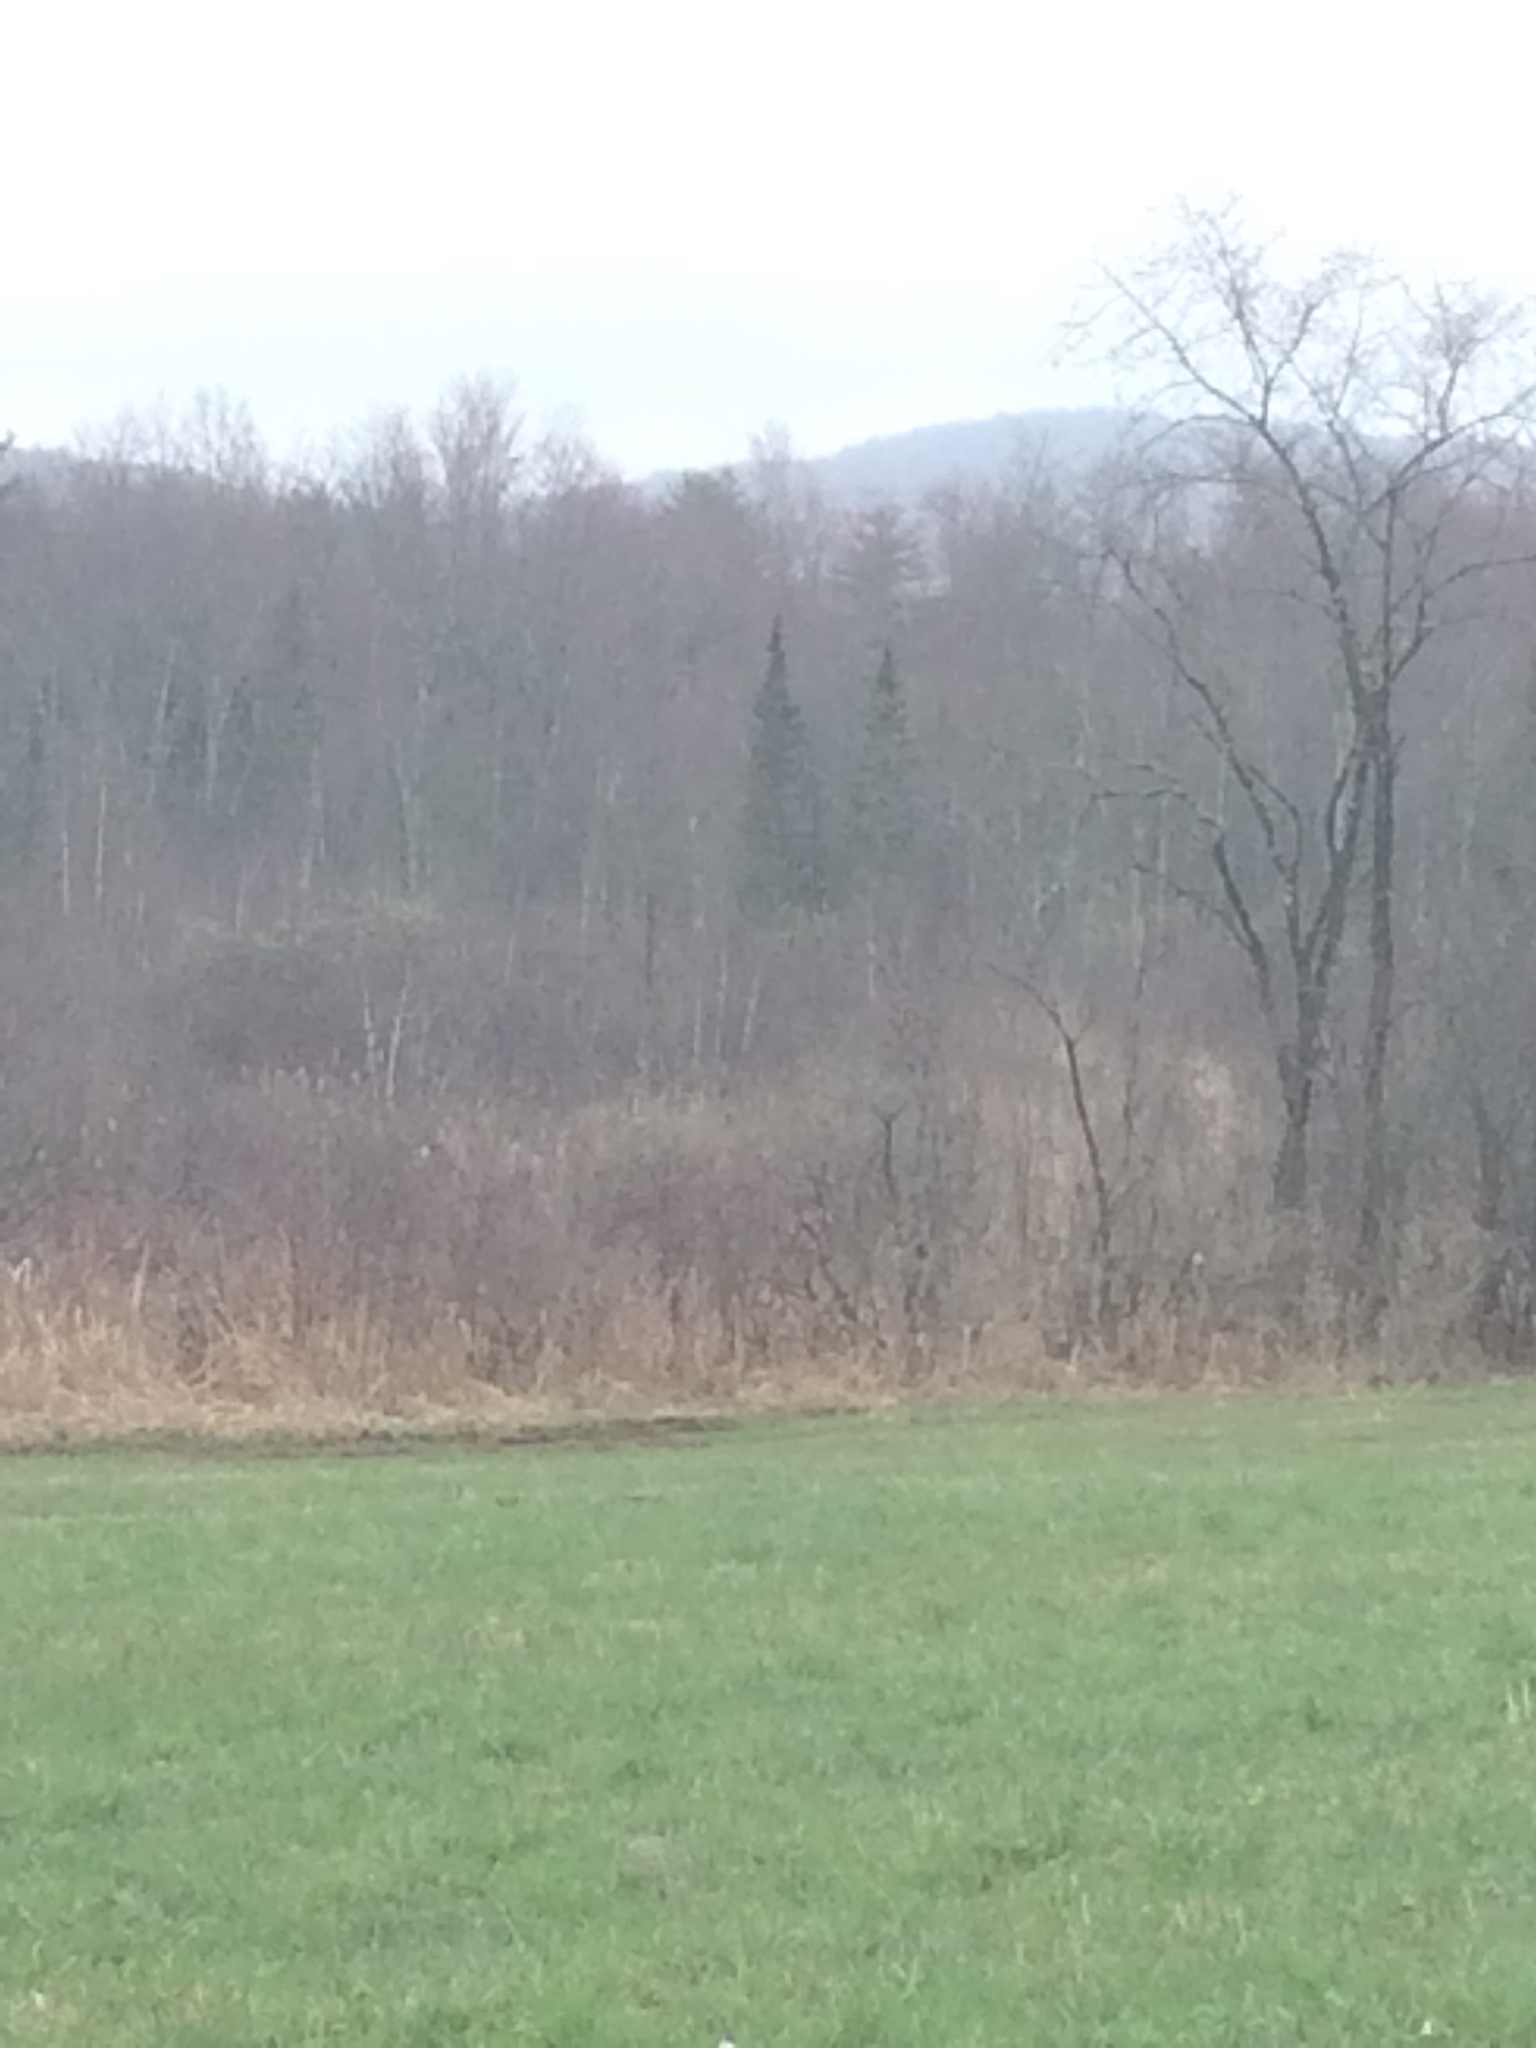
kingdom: Plantae
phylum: Tracheophyta
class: Pinopsida
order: Pinales
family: Pinaceae
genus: Abies
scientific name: Abies balsamea
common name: Balsam fir
